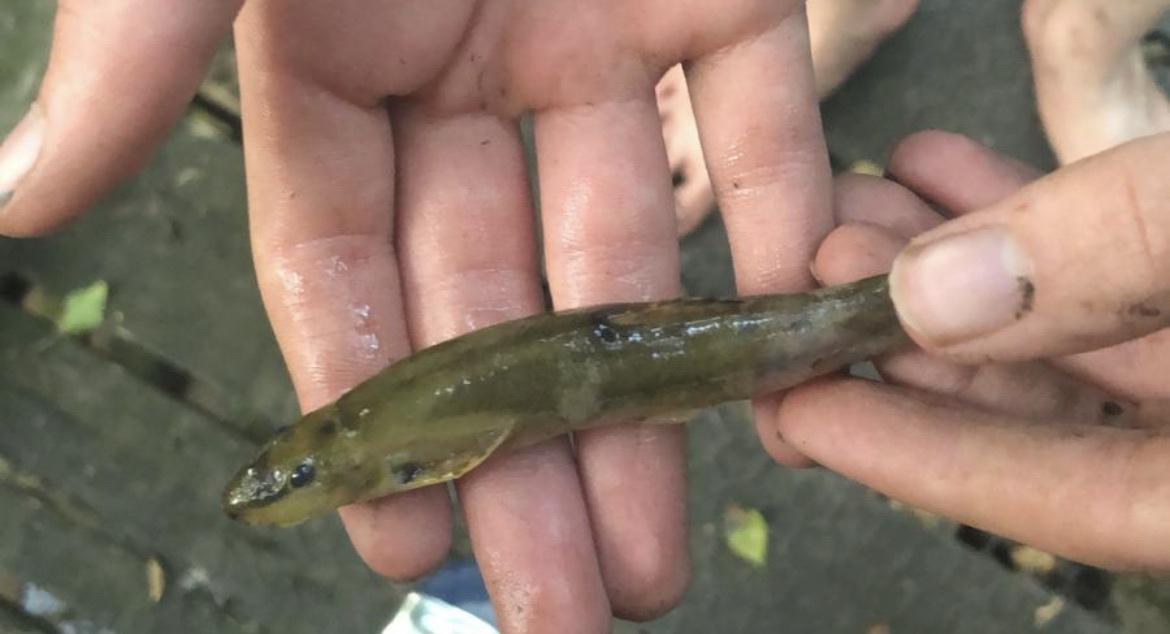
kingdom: Animalia
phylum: Chordata
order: Cypriniformes
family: Nemacheilidae
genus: Barbatula
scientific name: Barbatula barbatula
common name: Stone loach
